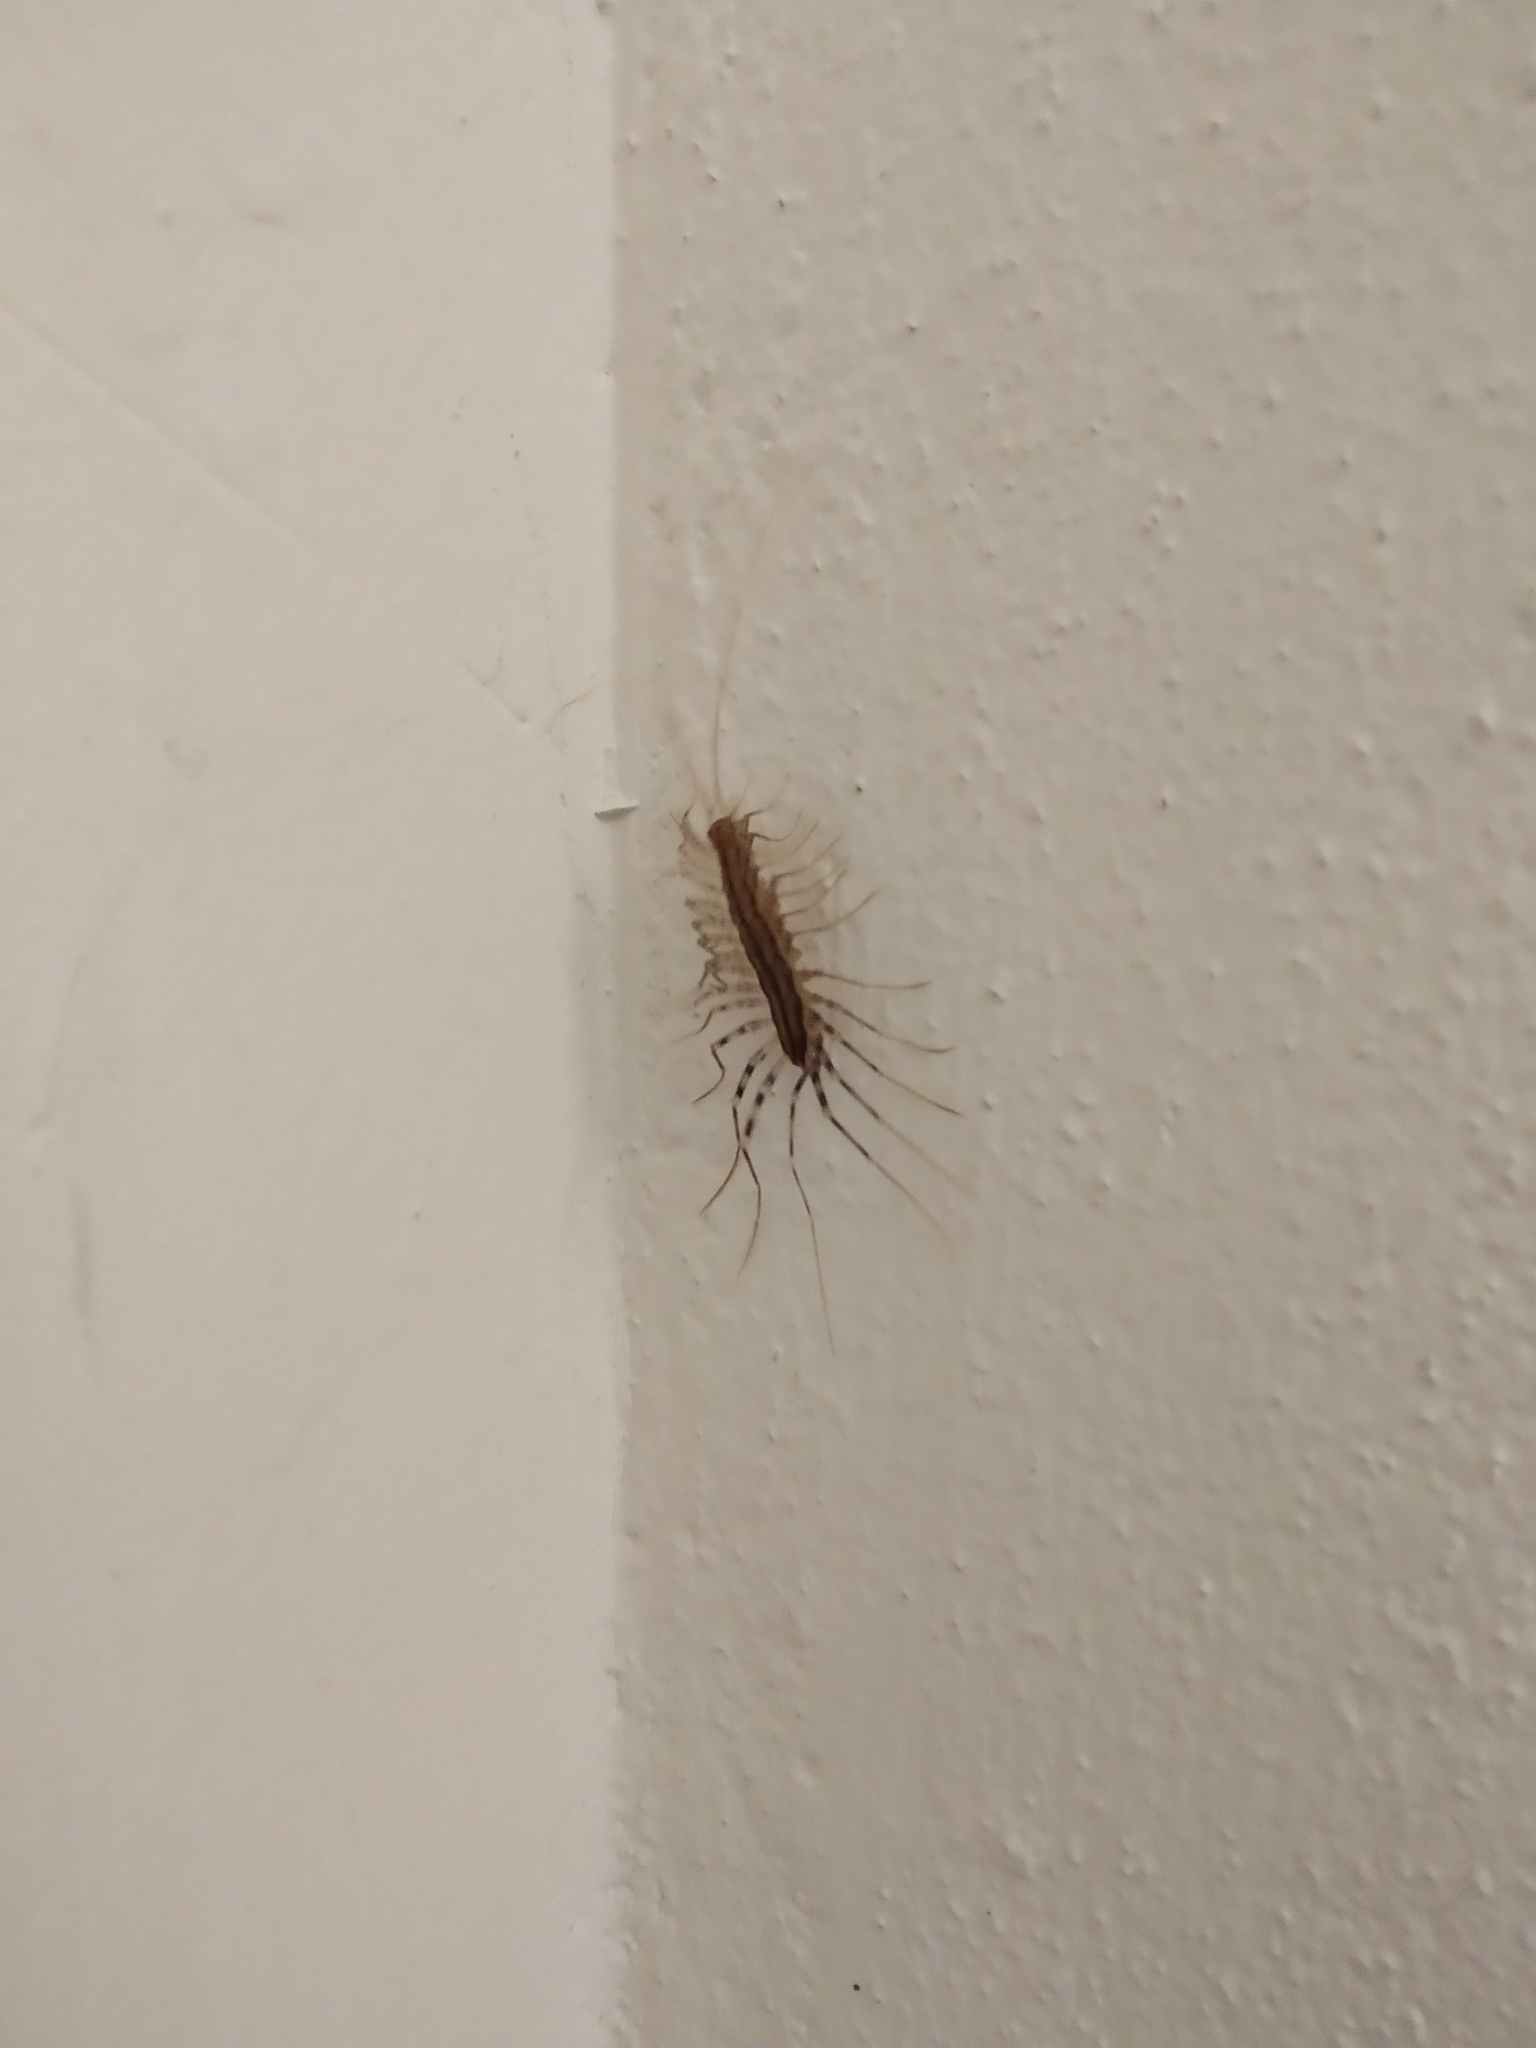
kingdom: Animalia
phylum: Arthropoda
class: Chilopoda
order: Scutigeromorpha
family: Scutigeridae
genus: Scutigera
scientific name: Scutigera coleoptrata
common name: House centipede
